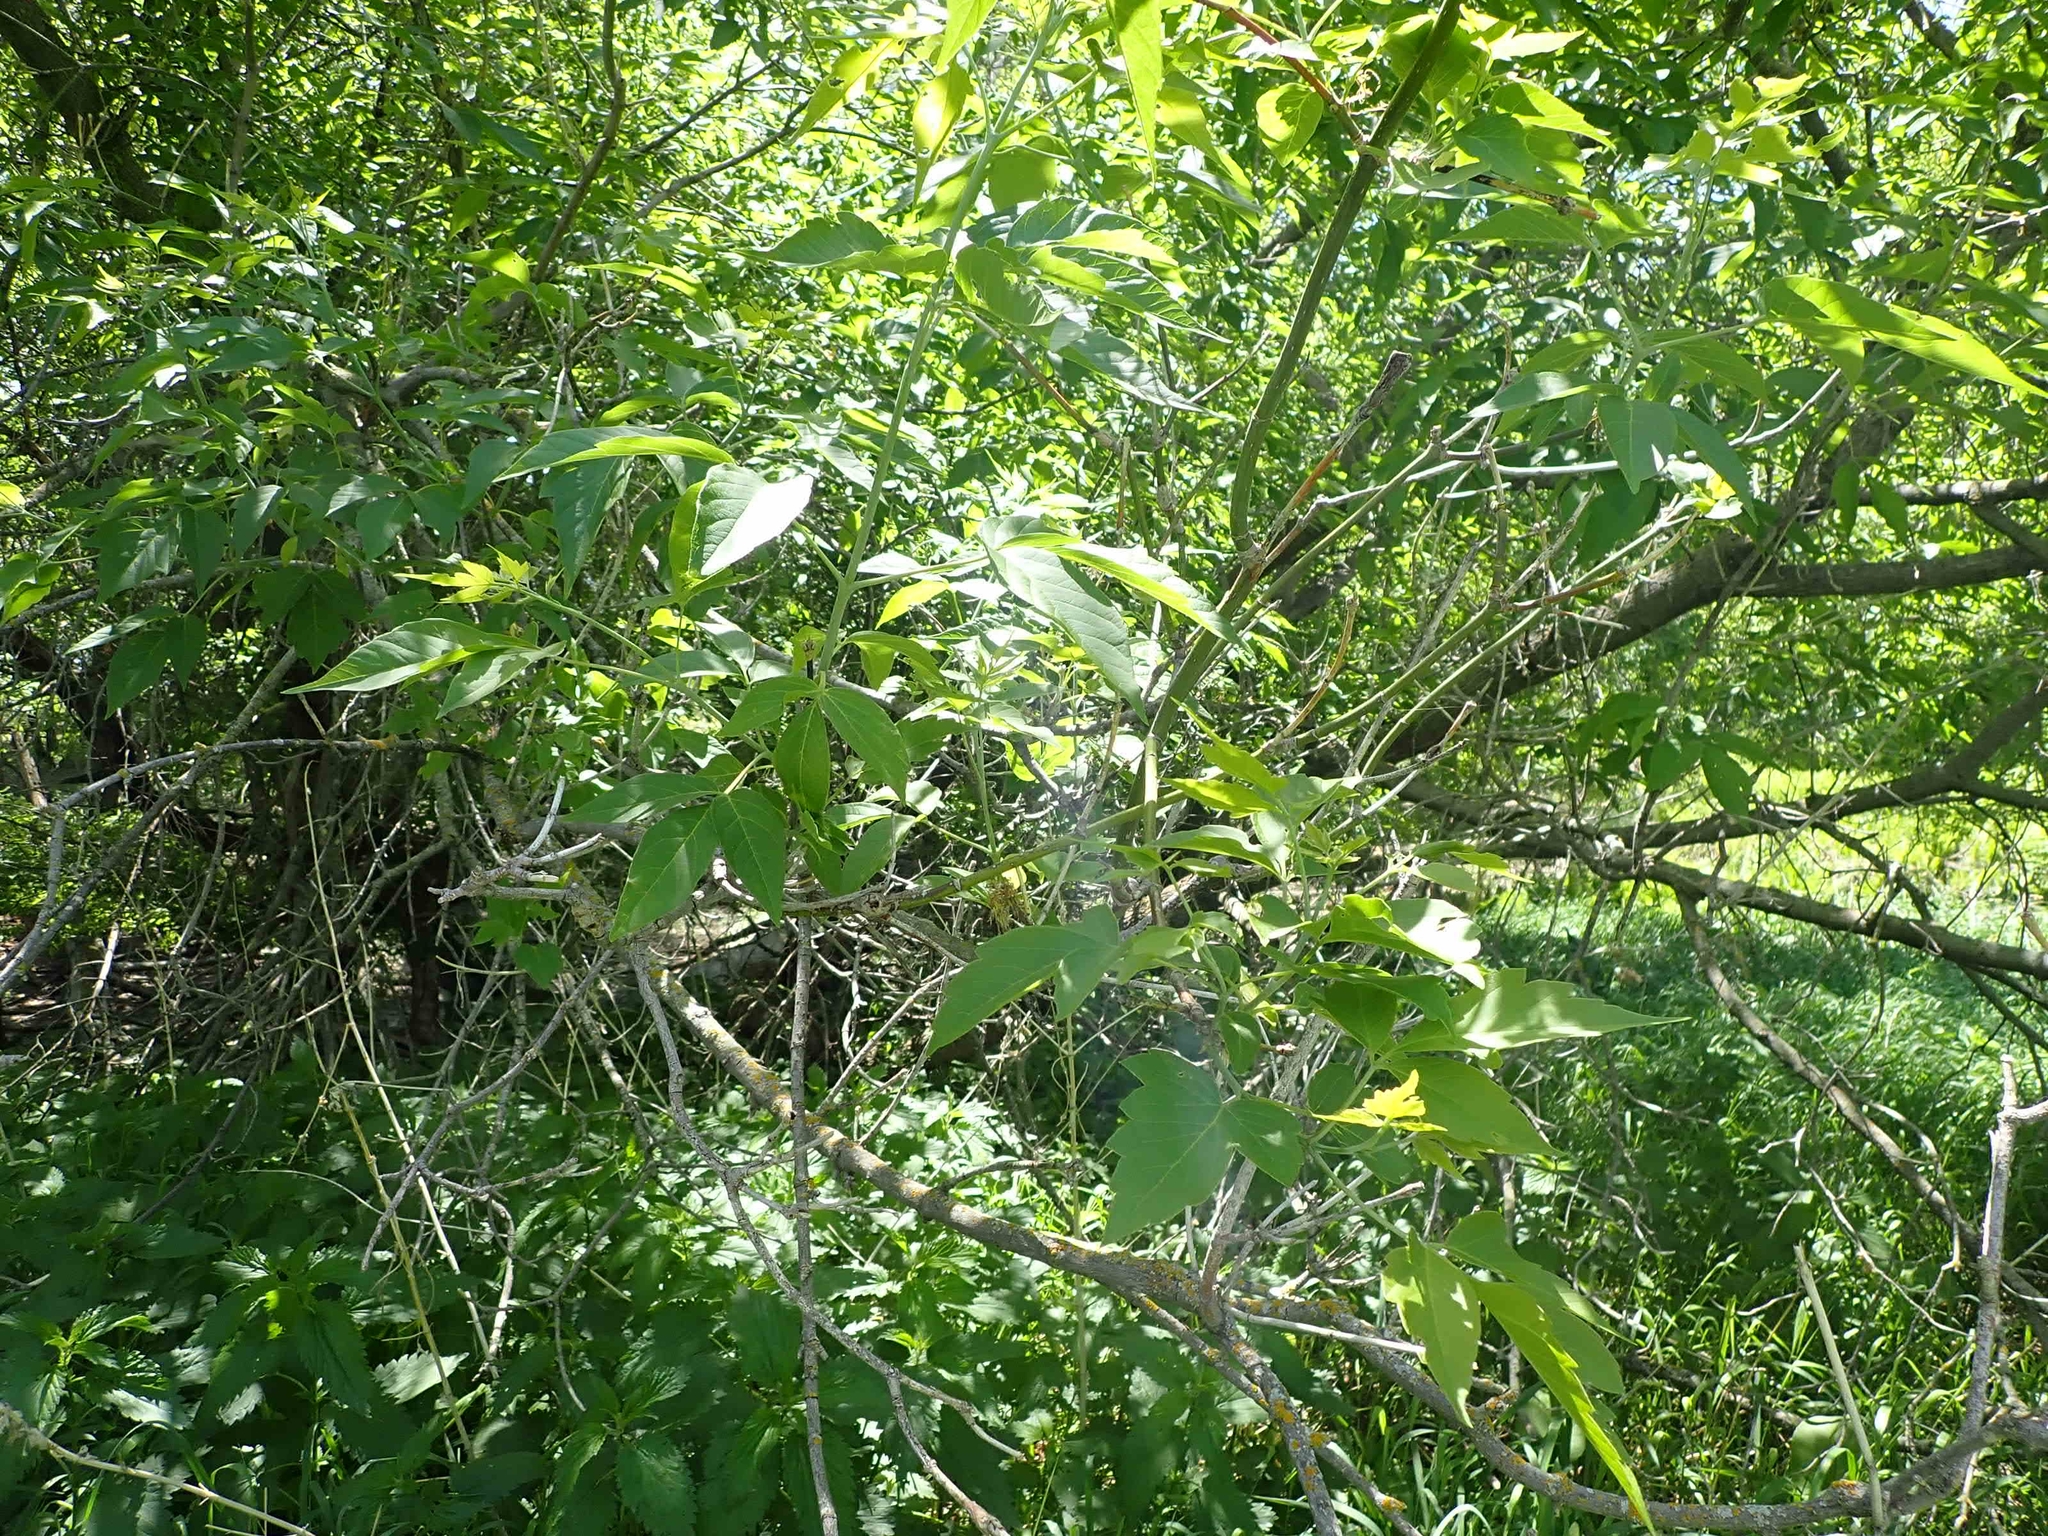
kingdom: Plantae
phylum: Tracheophyta
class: Magnoliopsida
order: Sapindales
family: Sapindaceae
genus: Acer
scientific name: Acer negundo
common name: Ashleaf maple
